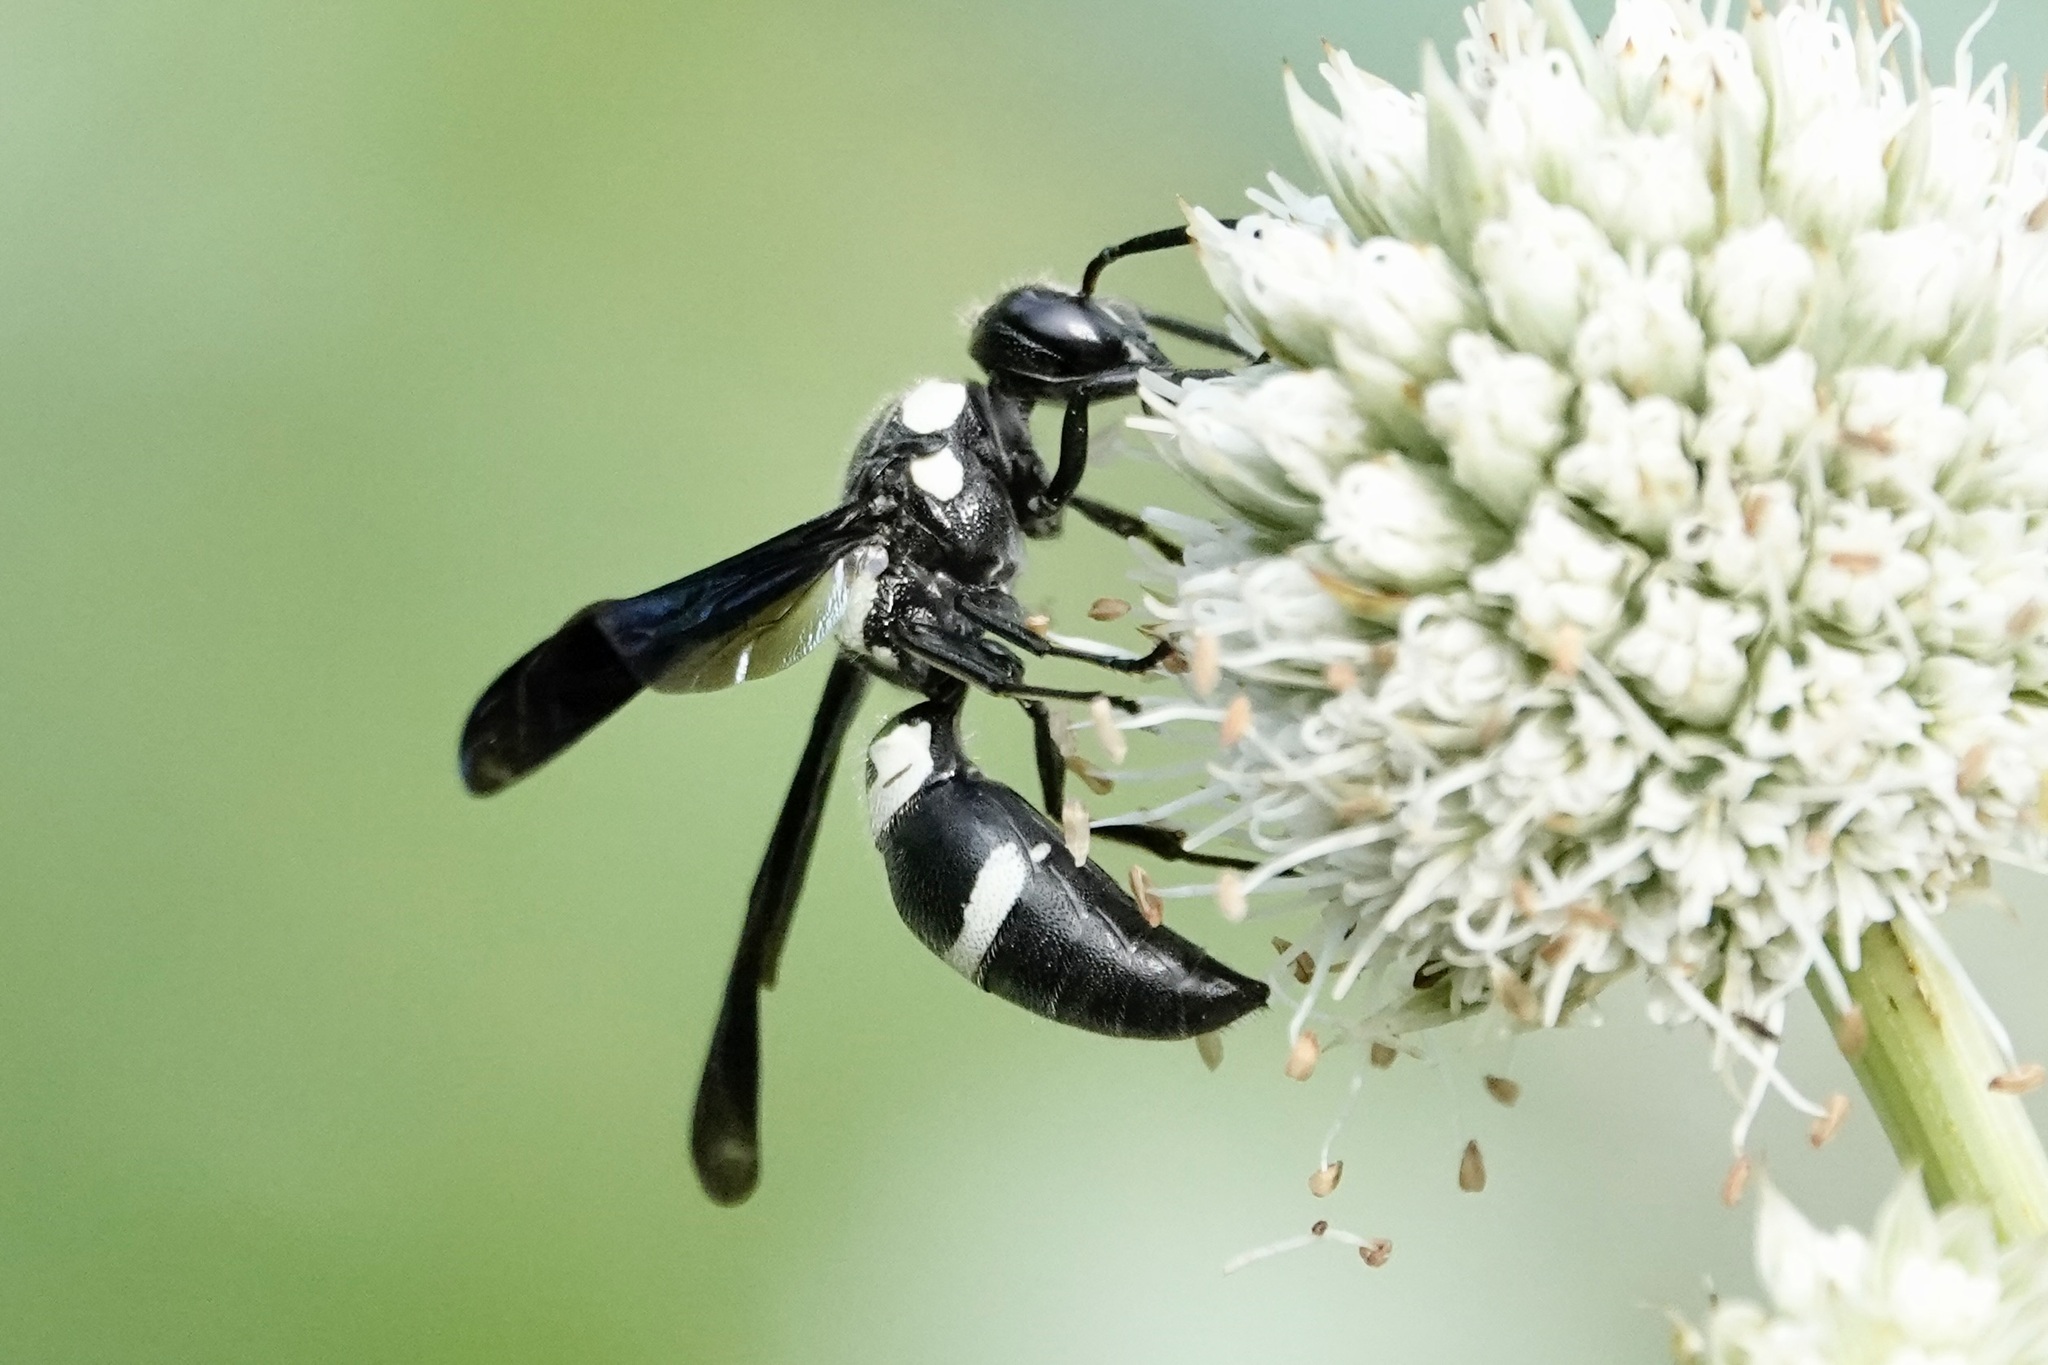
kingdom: Animalia
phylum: Arthropoda
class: Insecta
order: Hymenoptera
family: Eumenidae
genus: Pseudodynerus
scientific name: Pseudodynerus quadrisectus
